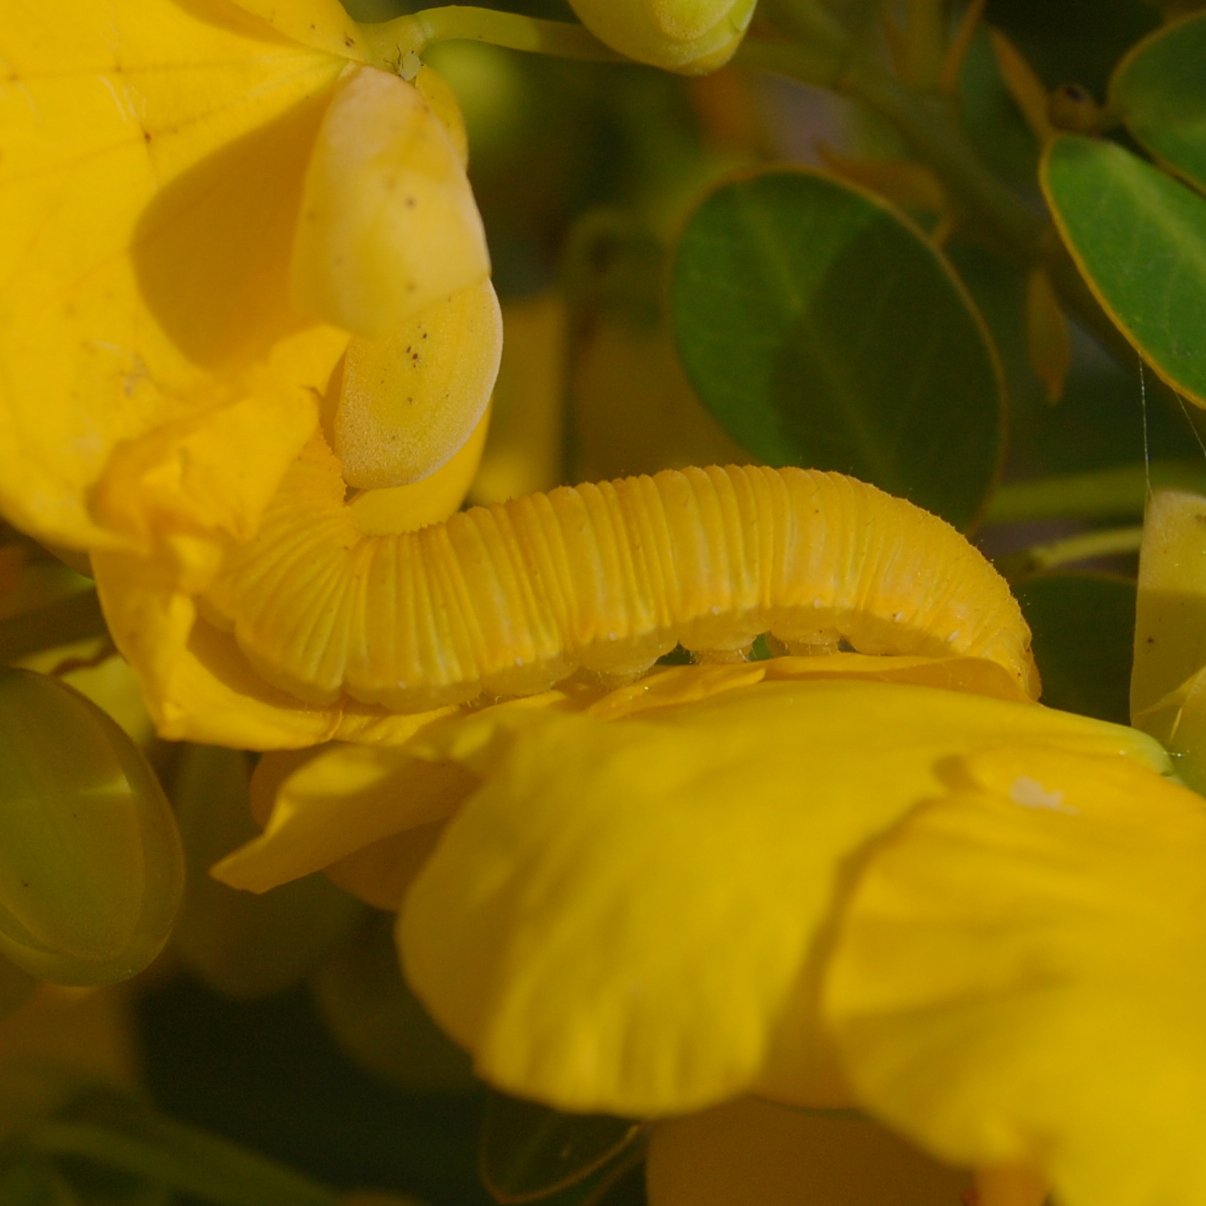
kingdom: Animalia
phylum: Arthropoda
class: Insecta
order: Lepidoptera
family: Pieridae
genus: Phoebis
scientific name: Phoebis marcellina
